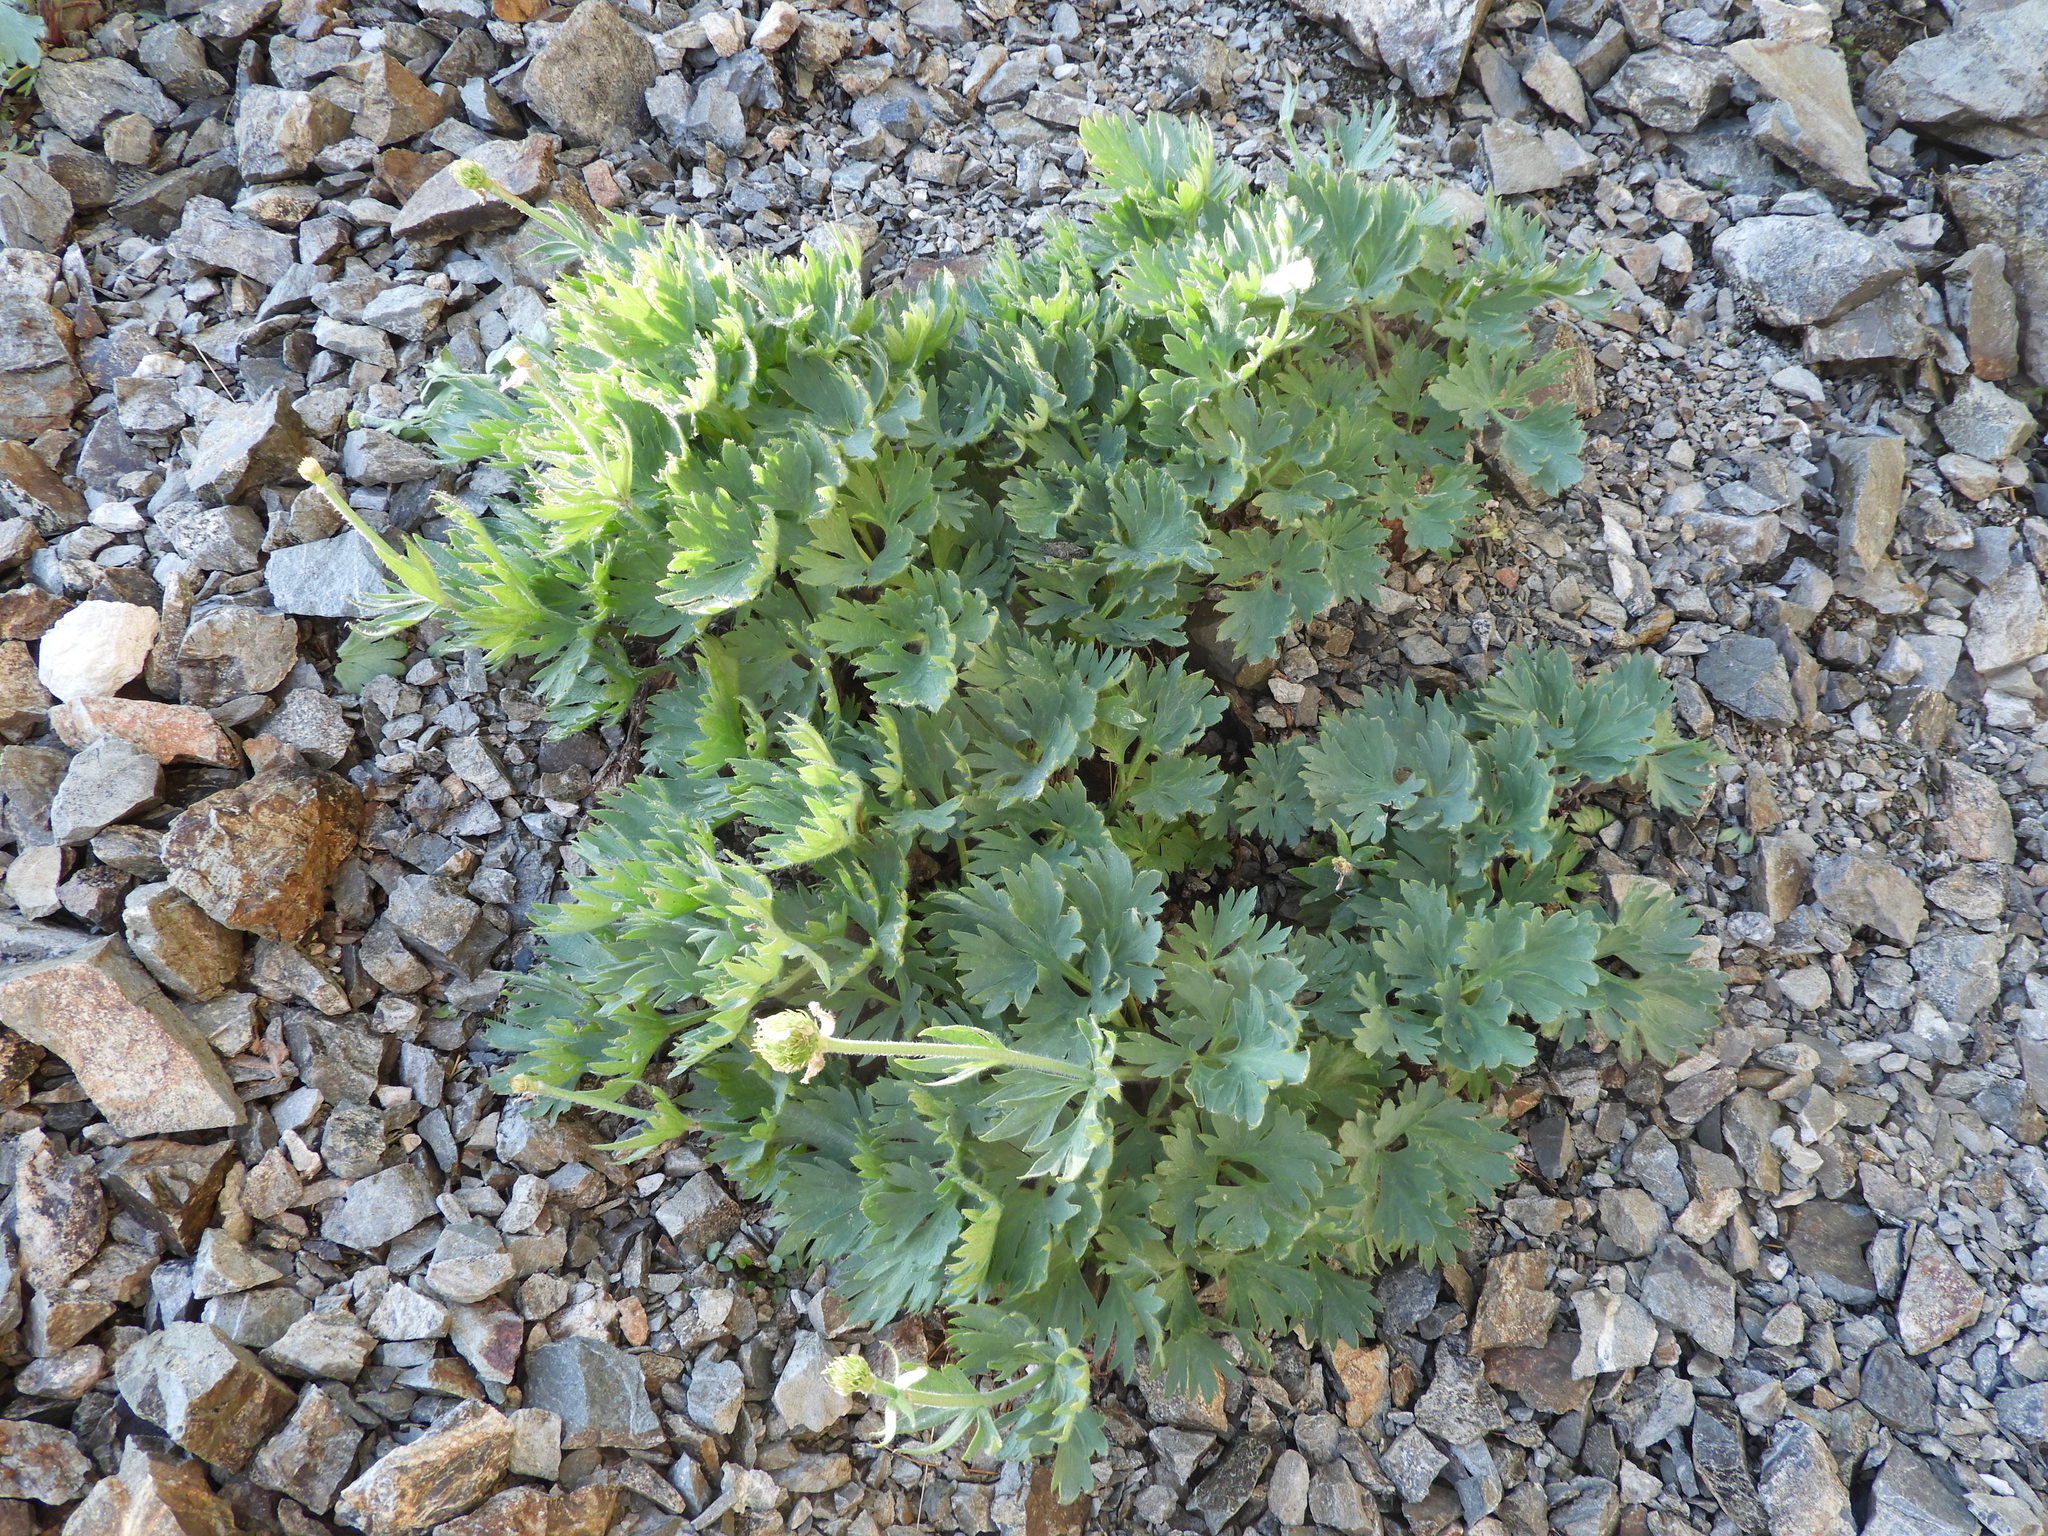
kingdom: Plantae
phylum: Tracheophyta
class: Magnoliopsida
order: Ranunculales
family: Ranunculaceae
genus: Ranunculus
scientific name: Ranunculus buchananii
